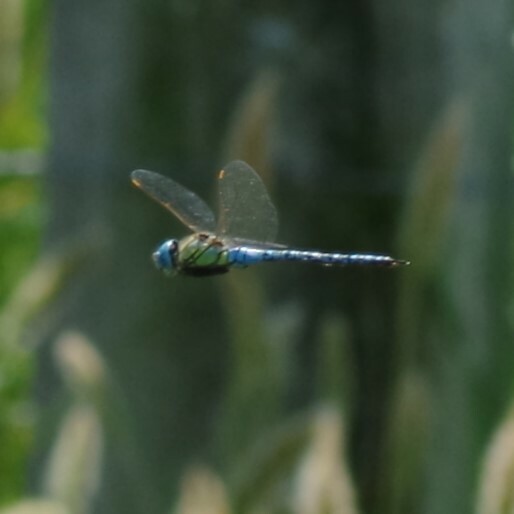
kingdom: Animalia
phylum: Arthropoda
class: Insecta
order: Odonata
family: Aeshnidae
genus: Aeshna
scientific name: Aeshna affinis
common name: Southern migrant hawker
